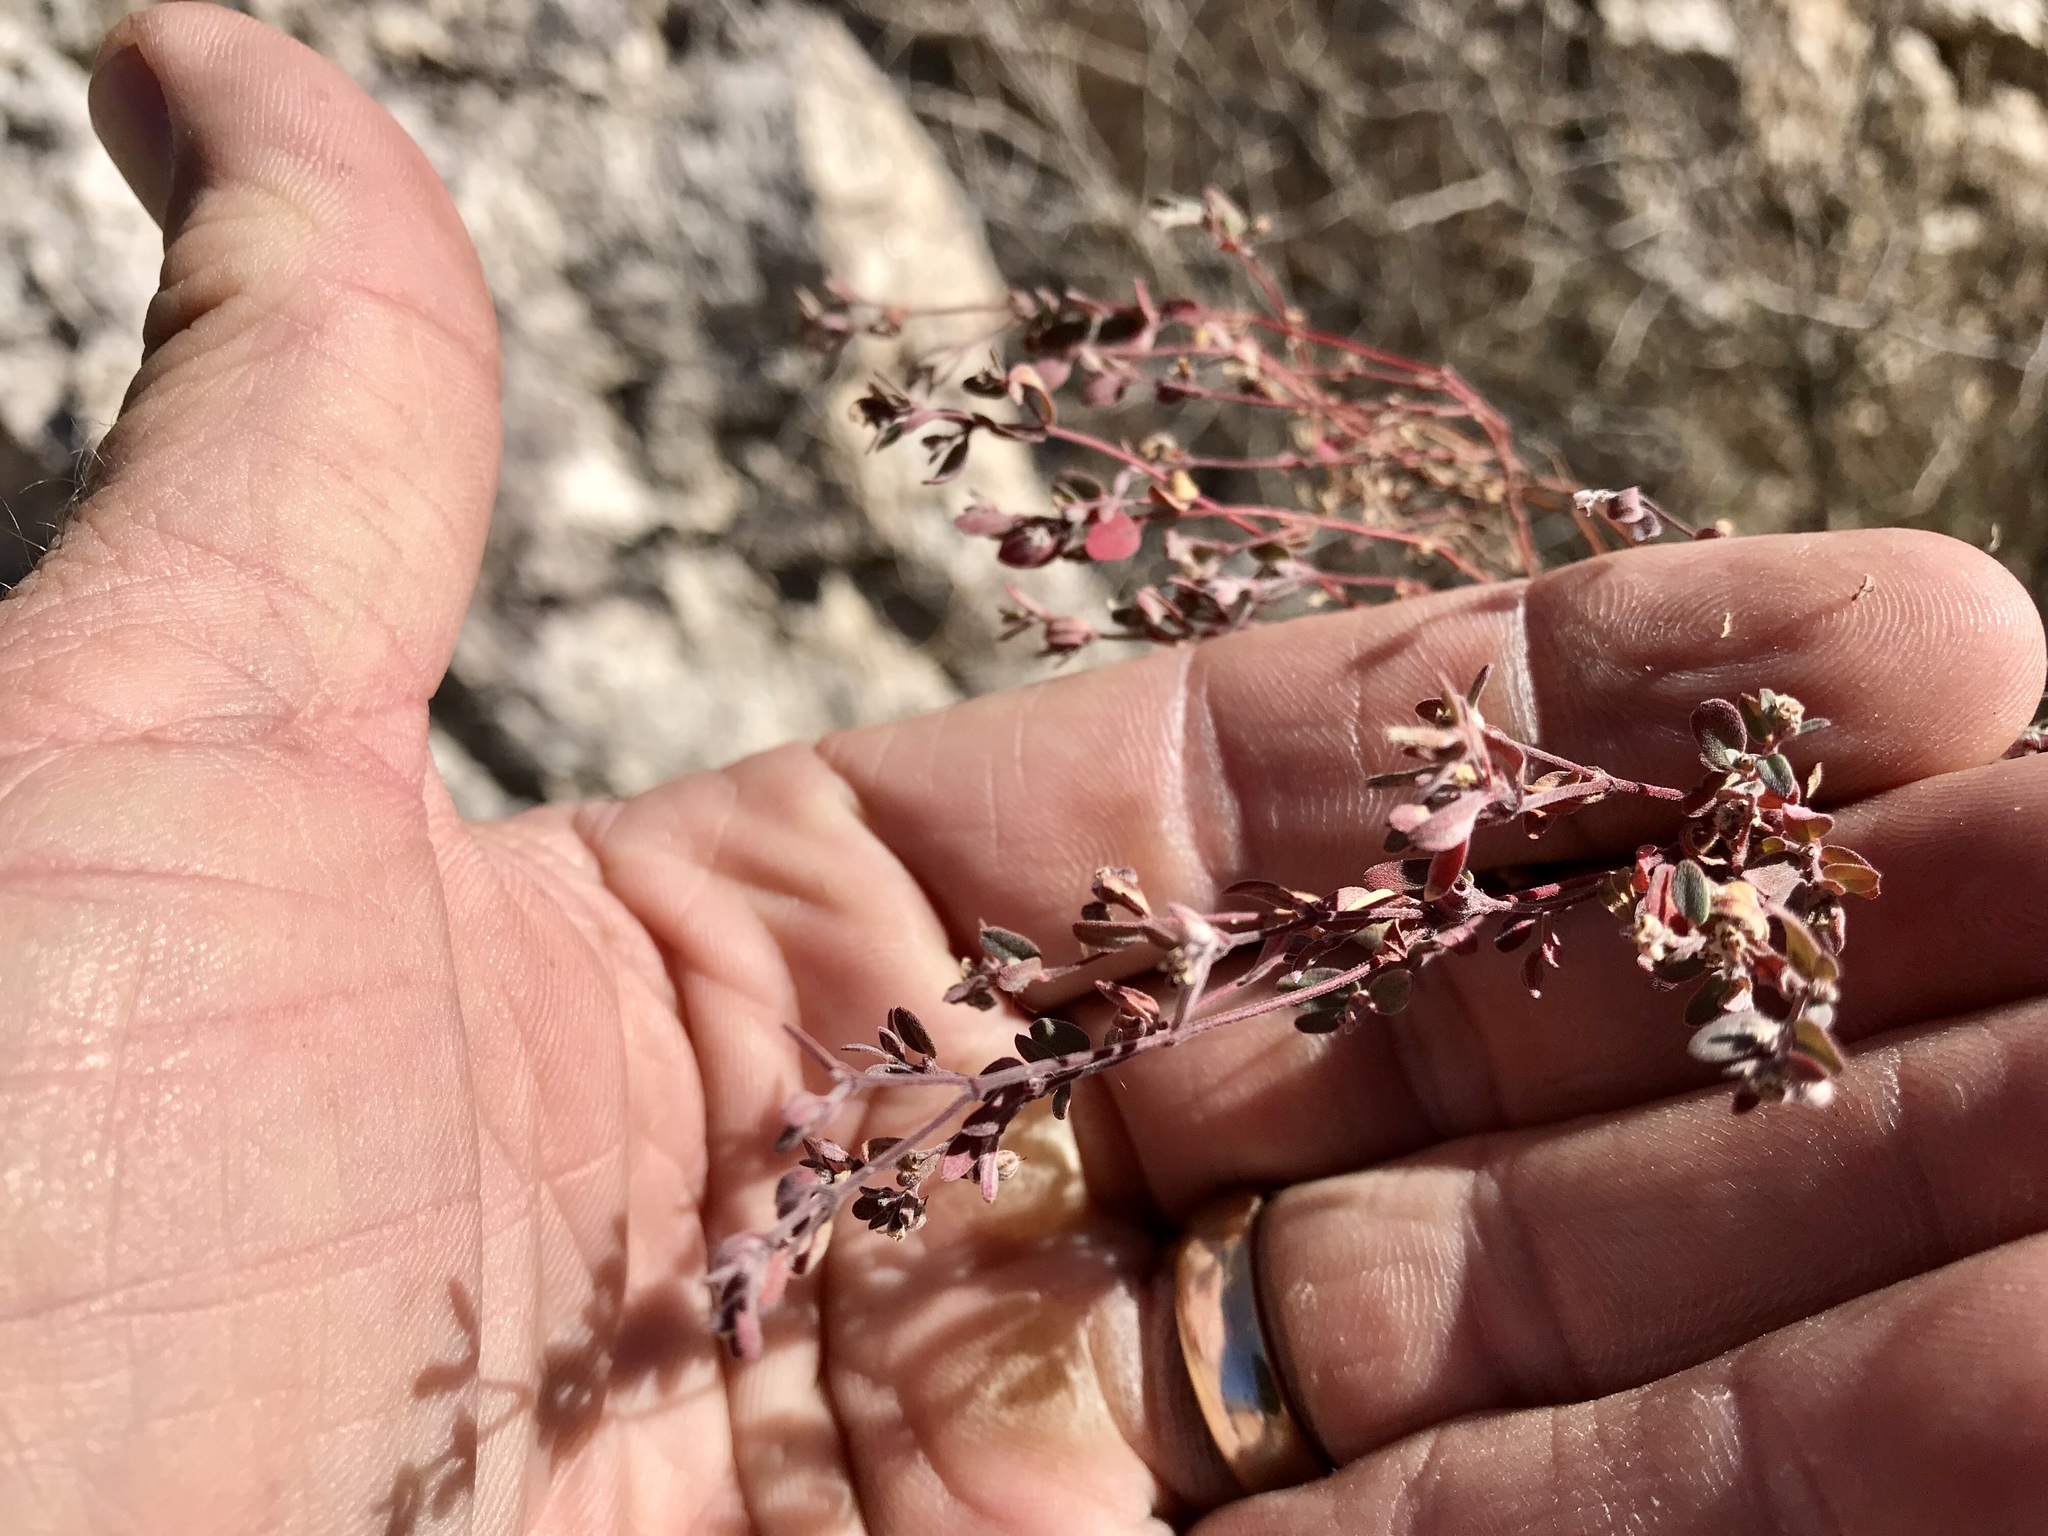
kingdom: Plantae
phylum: Tracheophyta
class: Magnoliopsida
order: Malpighiales
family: Euphorbiaceae
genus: Euphorbia
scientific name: Euphorbia melanadenia
